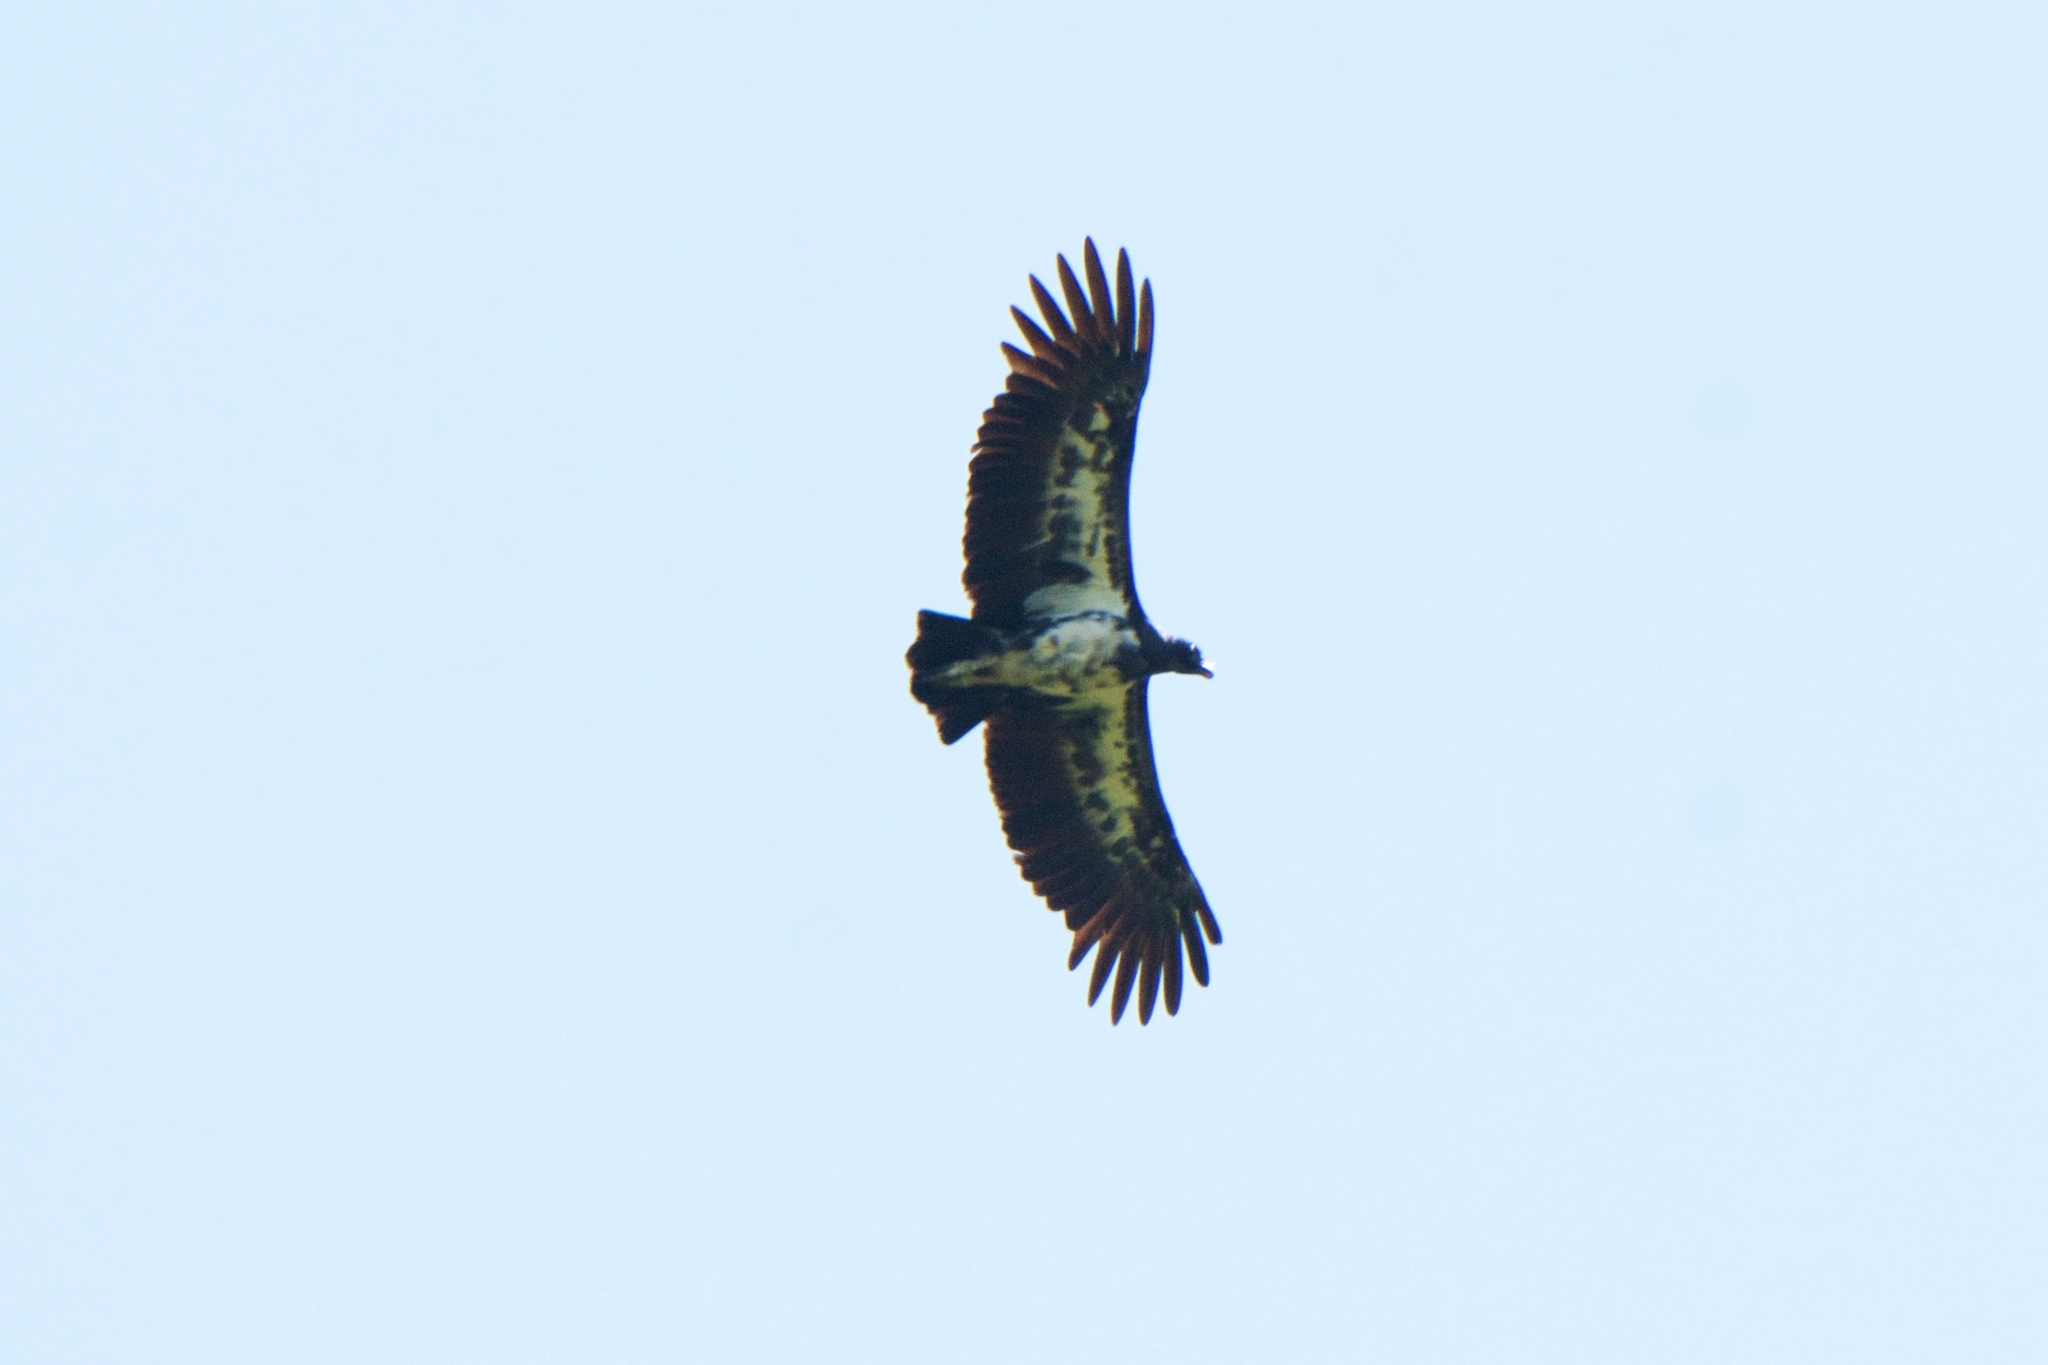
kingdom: Animalia
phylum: Chordata
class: Aves
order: Accipitriformes
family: Cathartidae
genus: Sarcoramphus
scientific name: Sarcoramphus papa
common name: King vulture
